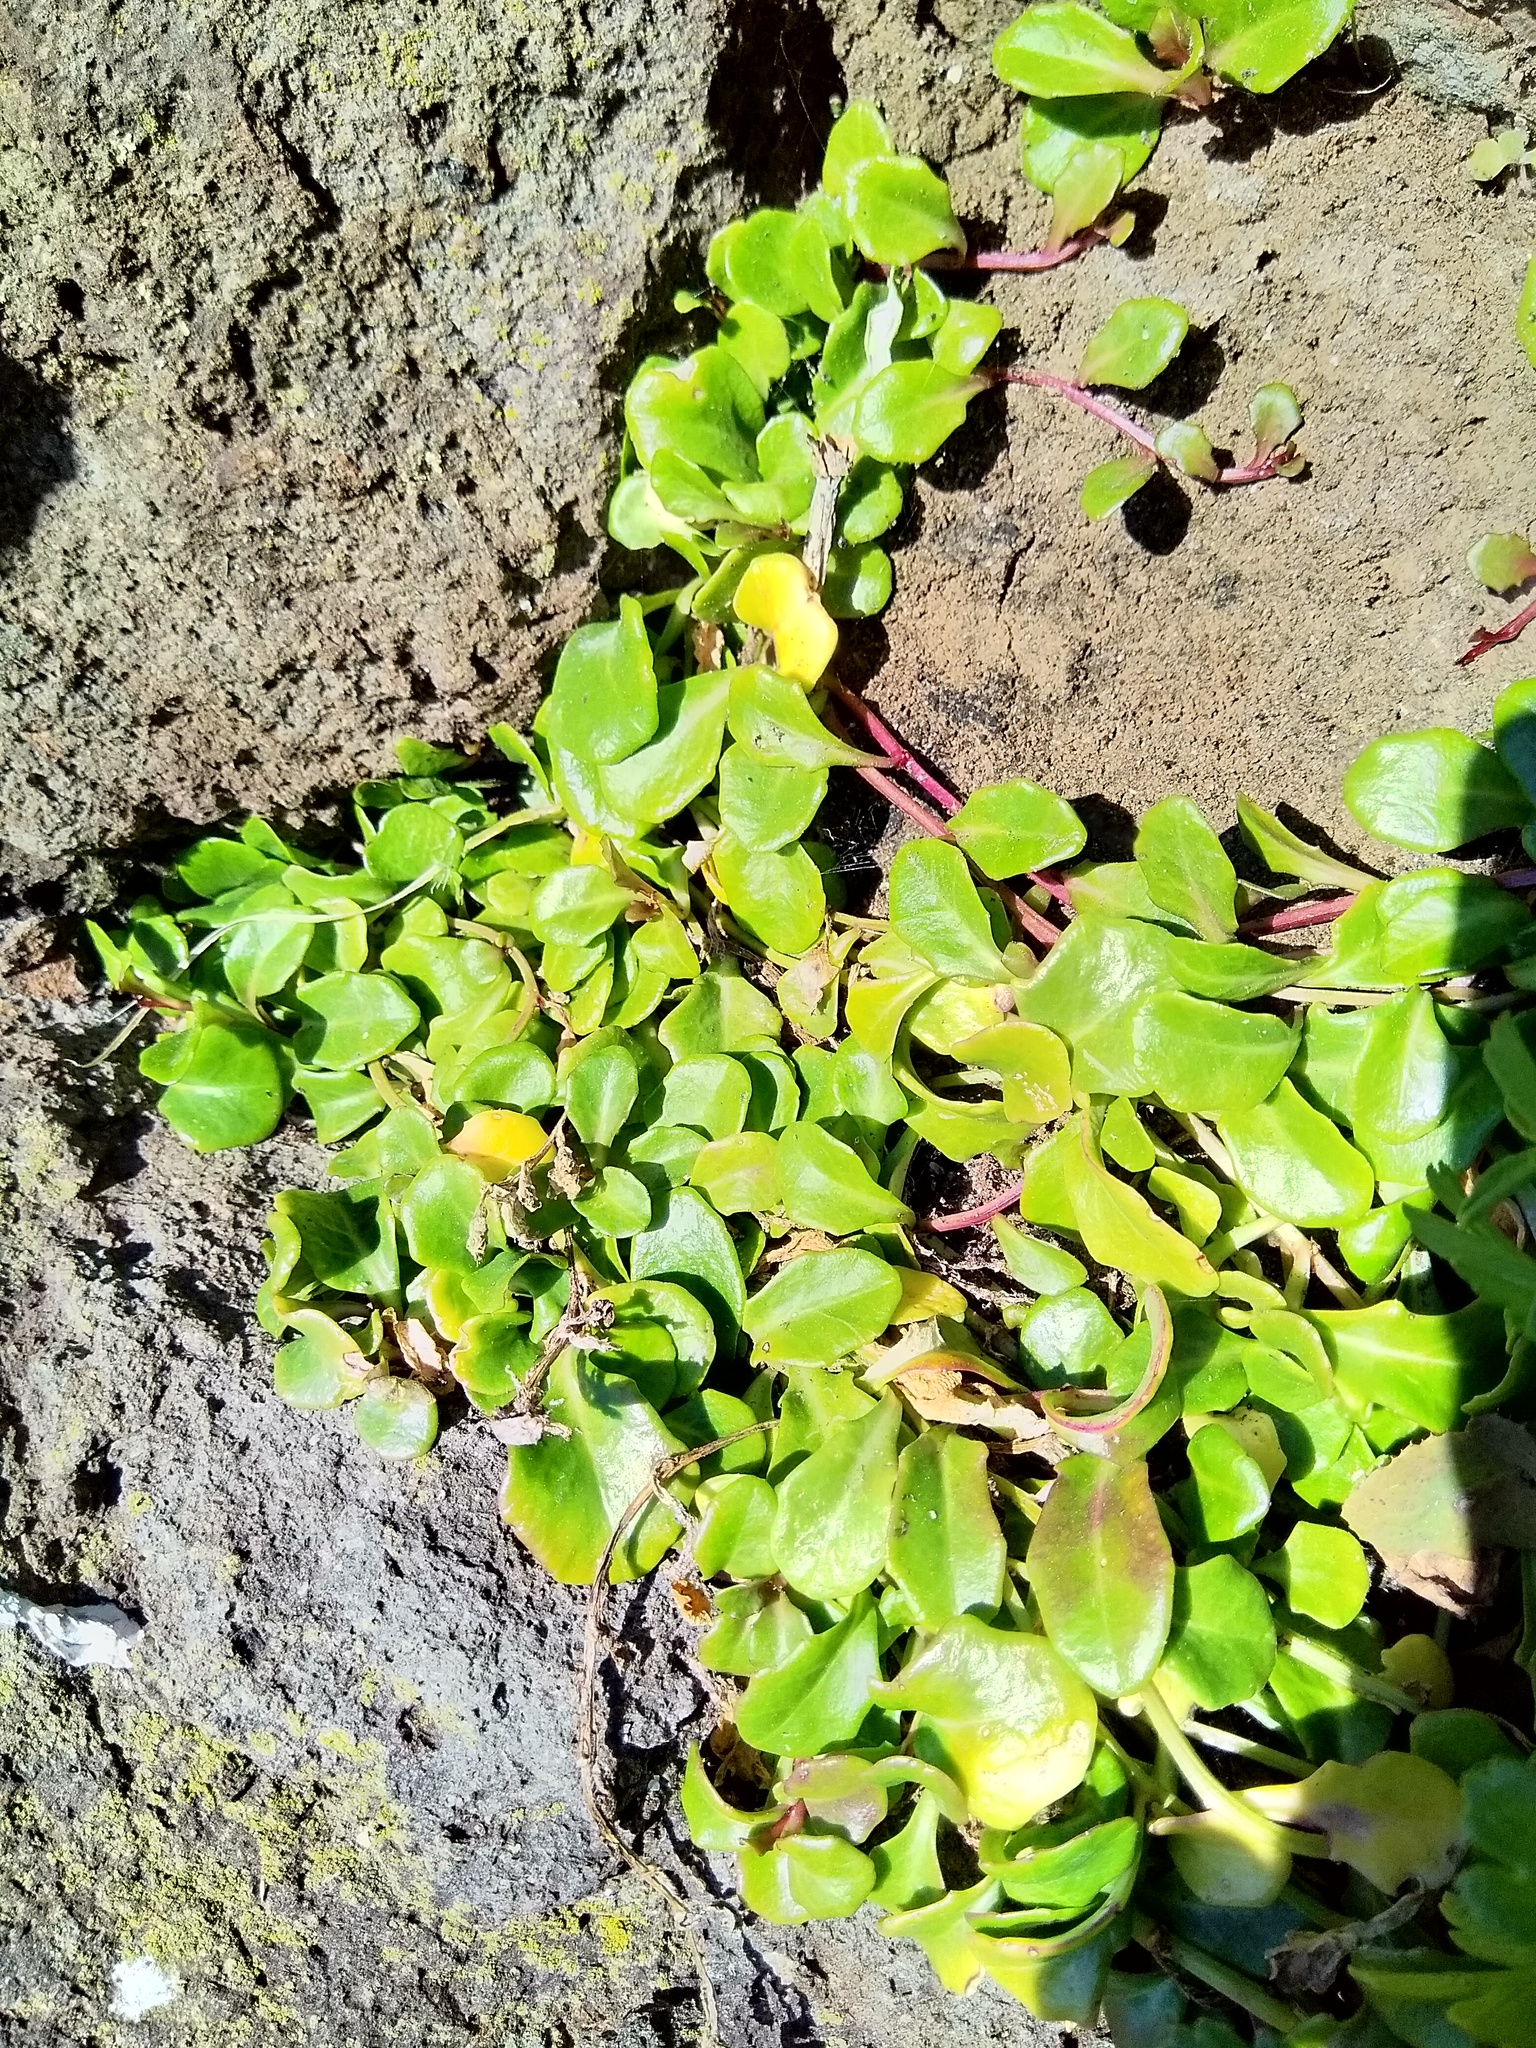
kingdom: Plantae
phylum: Tracheophyta
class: Magnoliopsida
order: Asterales
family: Campanulaceae
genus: Lobelia
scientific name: Lobelia anceps
